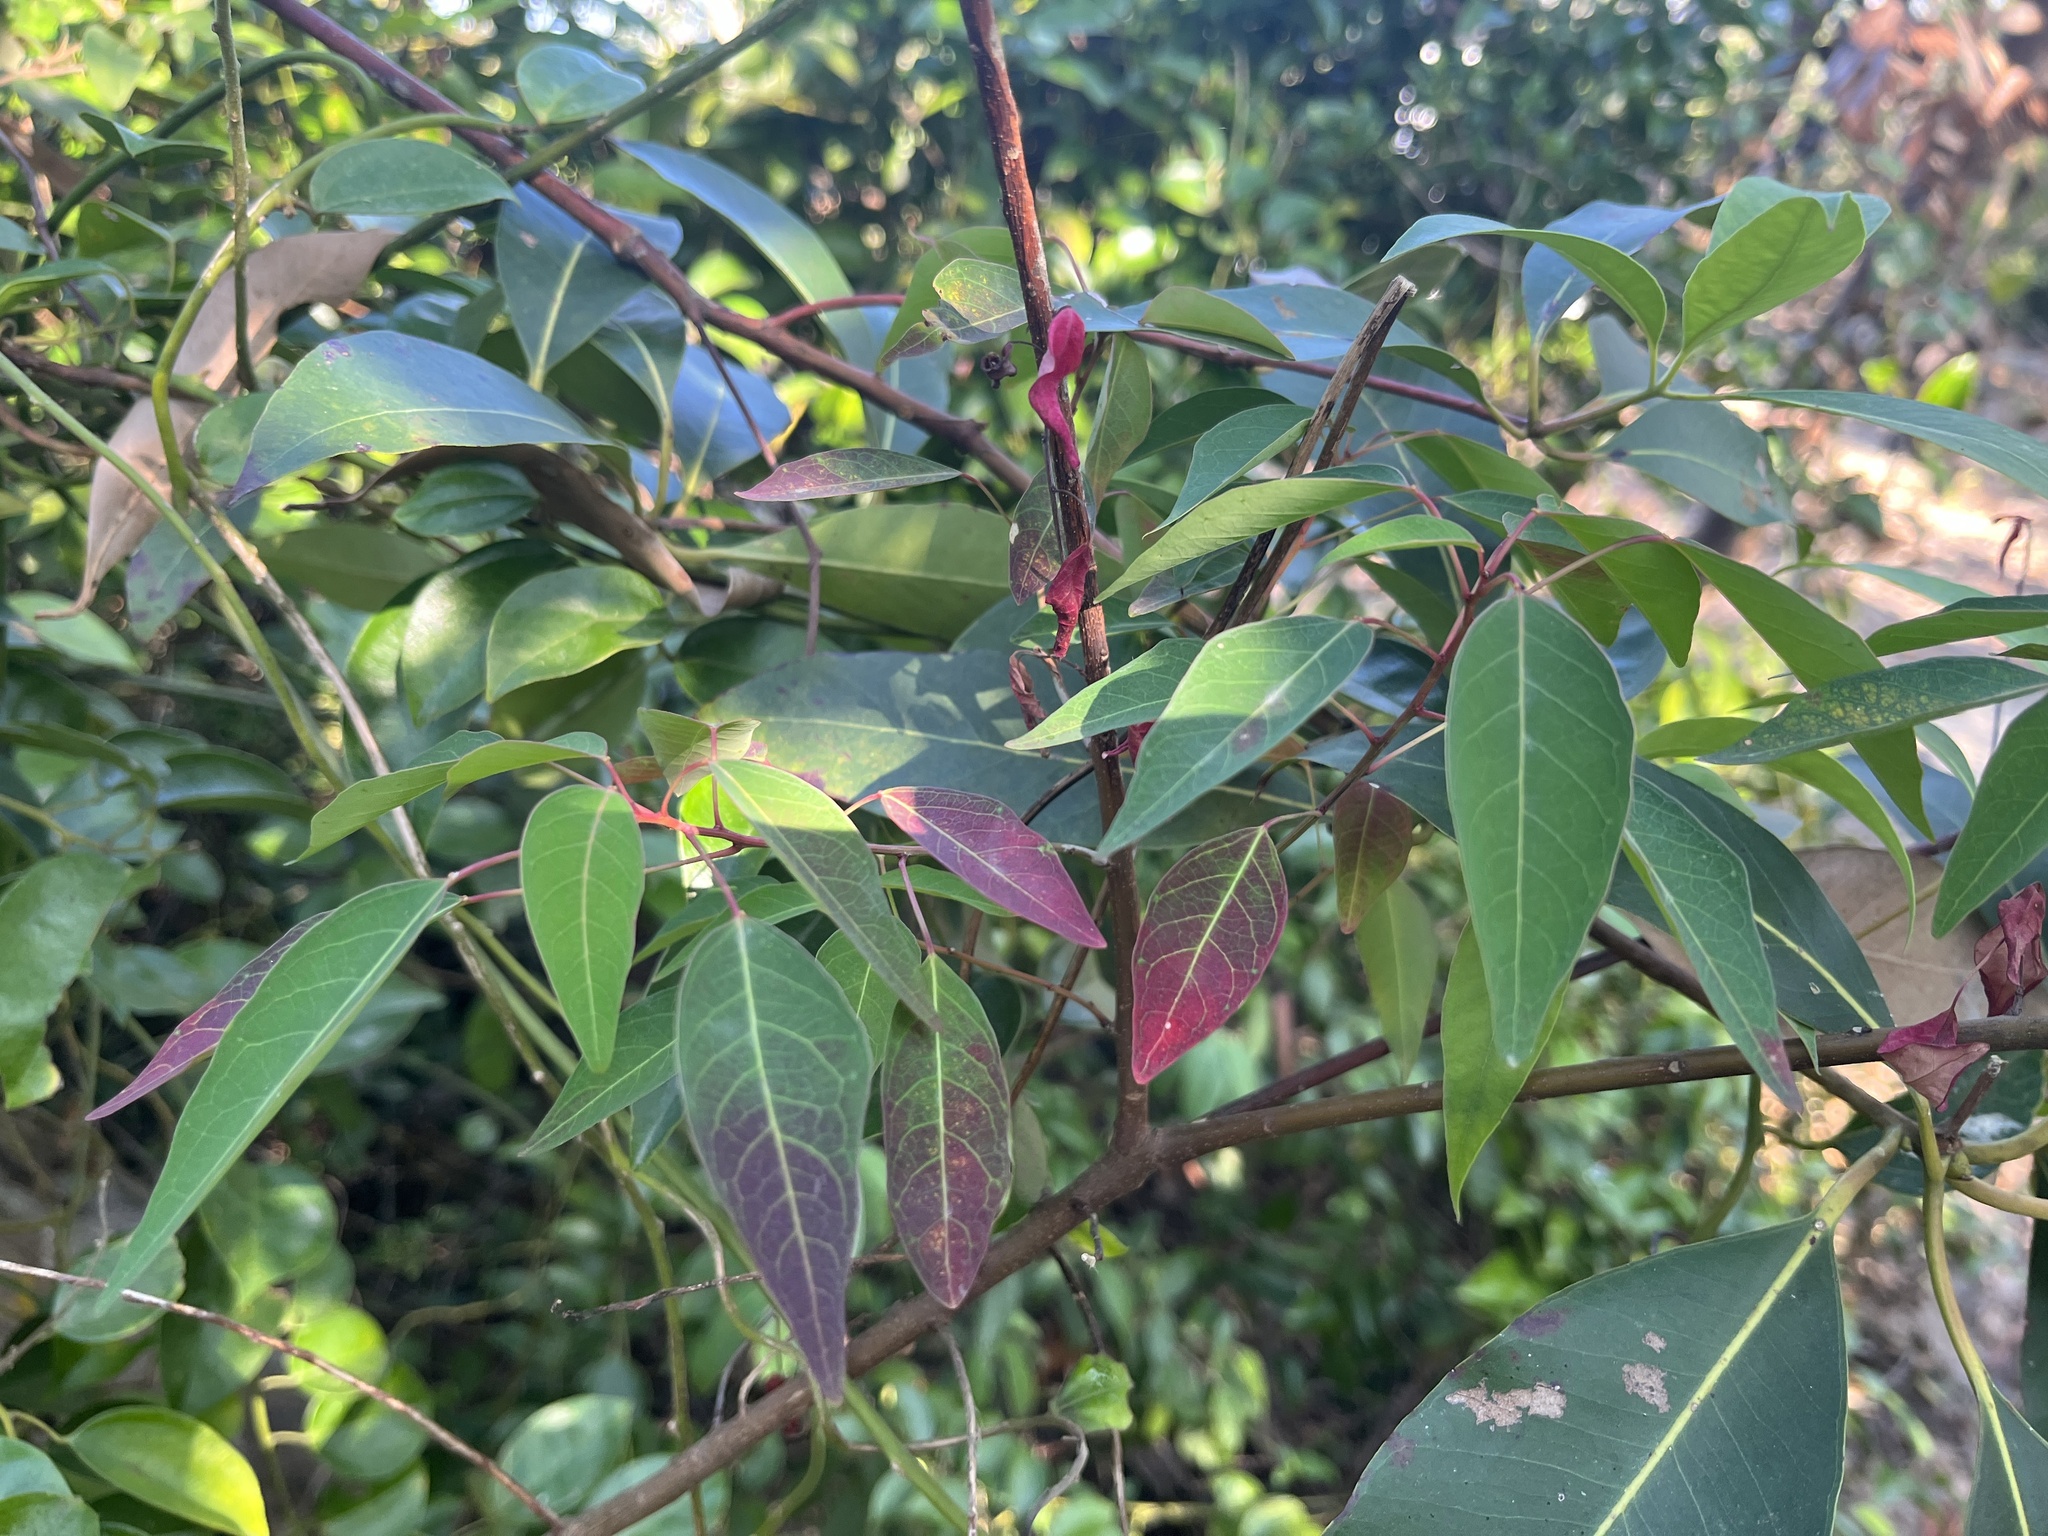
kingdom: Plantae
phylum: Tracheophyta
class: Magnoliopsida
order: Malpighiales
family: Euphorbiaceae
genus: Triadica
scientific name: Triadica cochinchinensis
